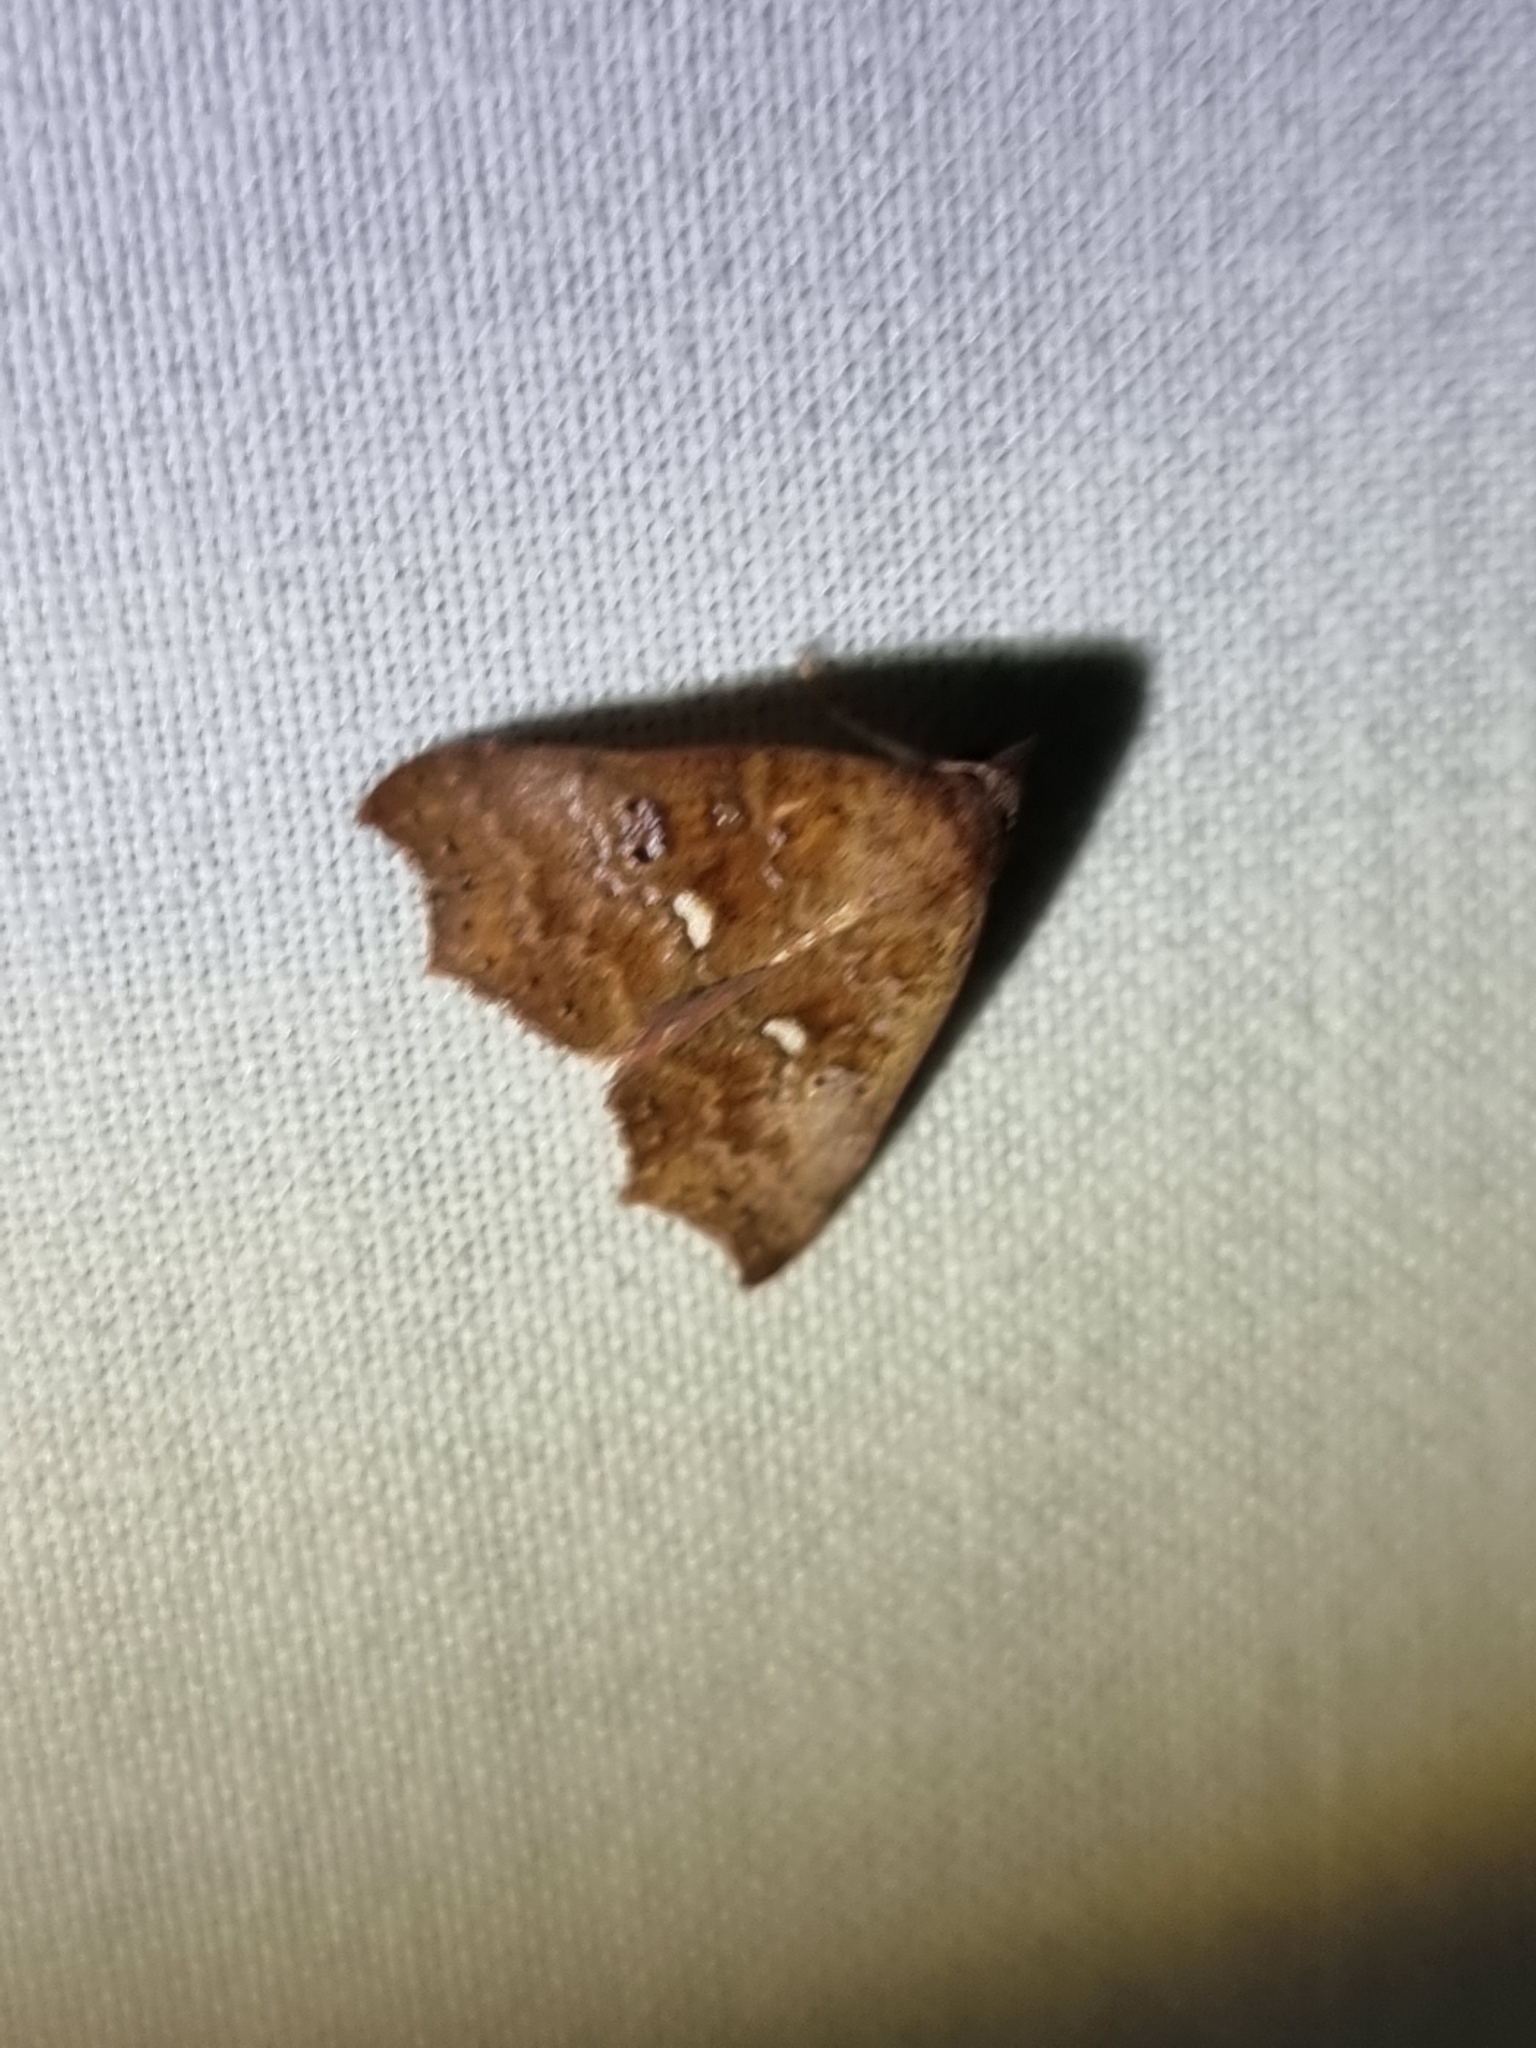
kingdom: Animalia
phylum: Arthropoda
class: Insecta
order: Lepidoptera
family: Erebidae
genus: Axiocteta
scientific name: Axiocteta oenoplex
